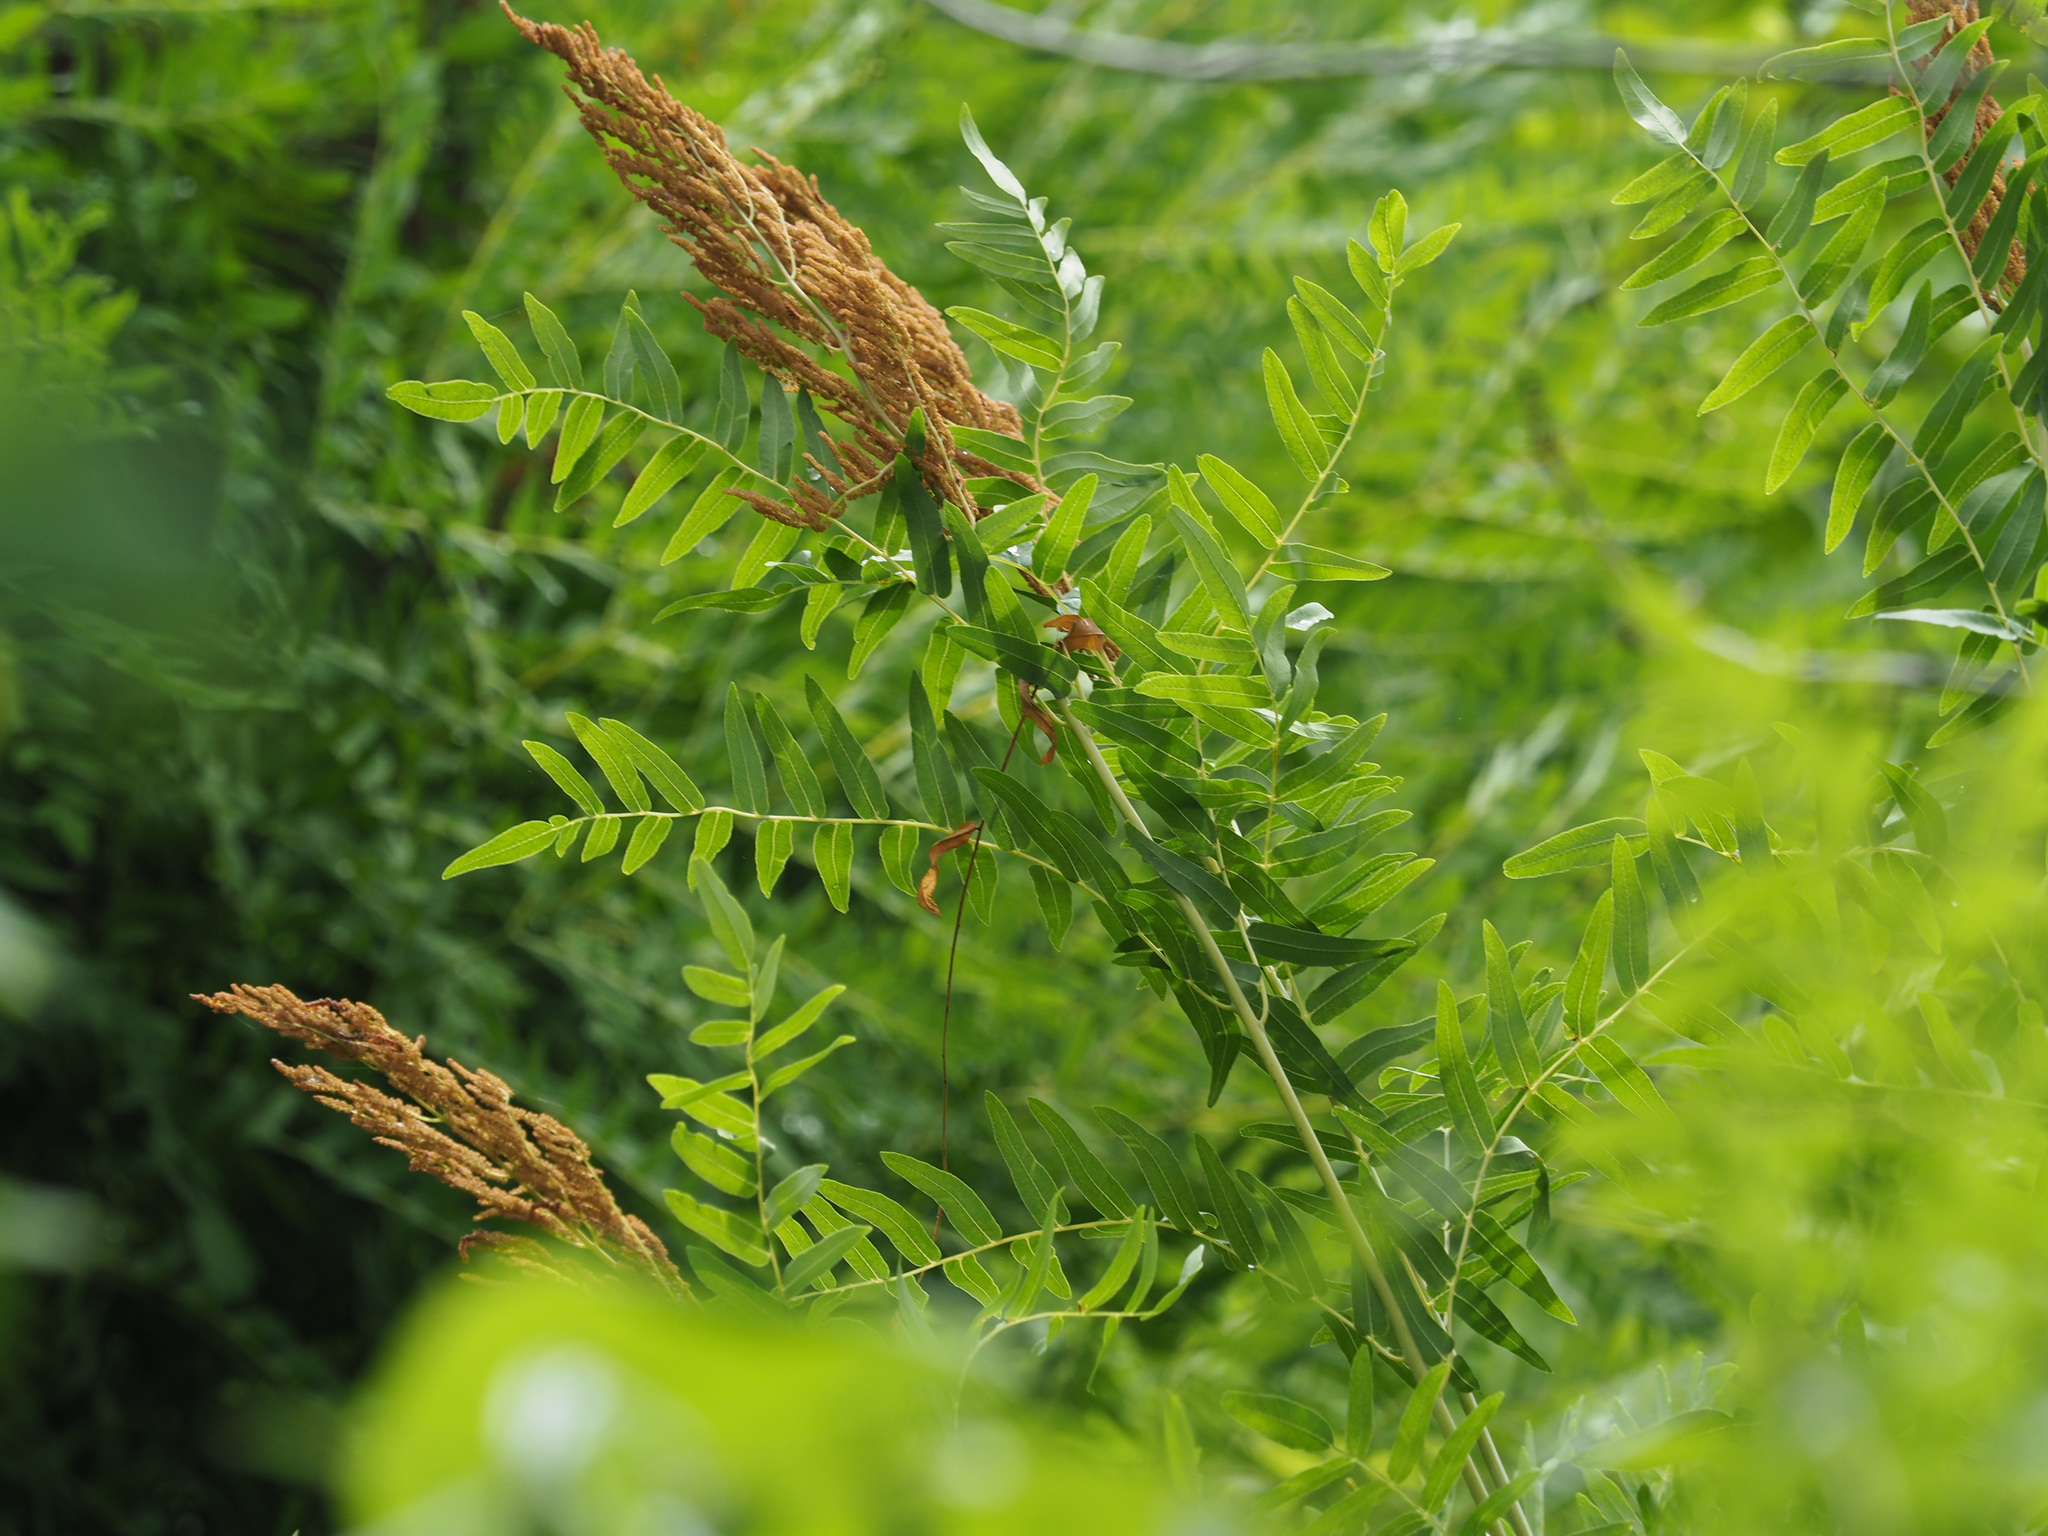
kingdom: Plantae
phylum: Tracheophyta
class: Polypodiopsida
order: Osmundales
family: Osmundaceae
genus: Osmunda
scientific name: Osmunda spectabilis
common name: American royal fern
